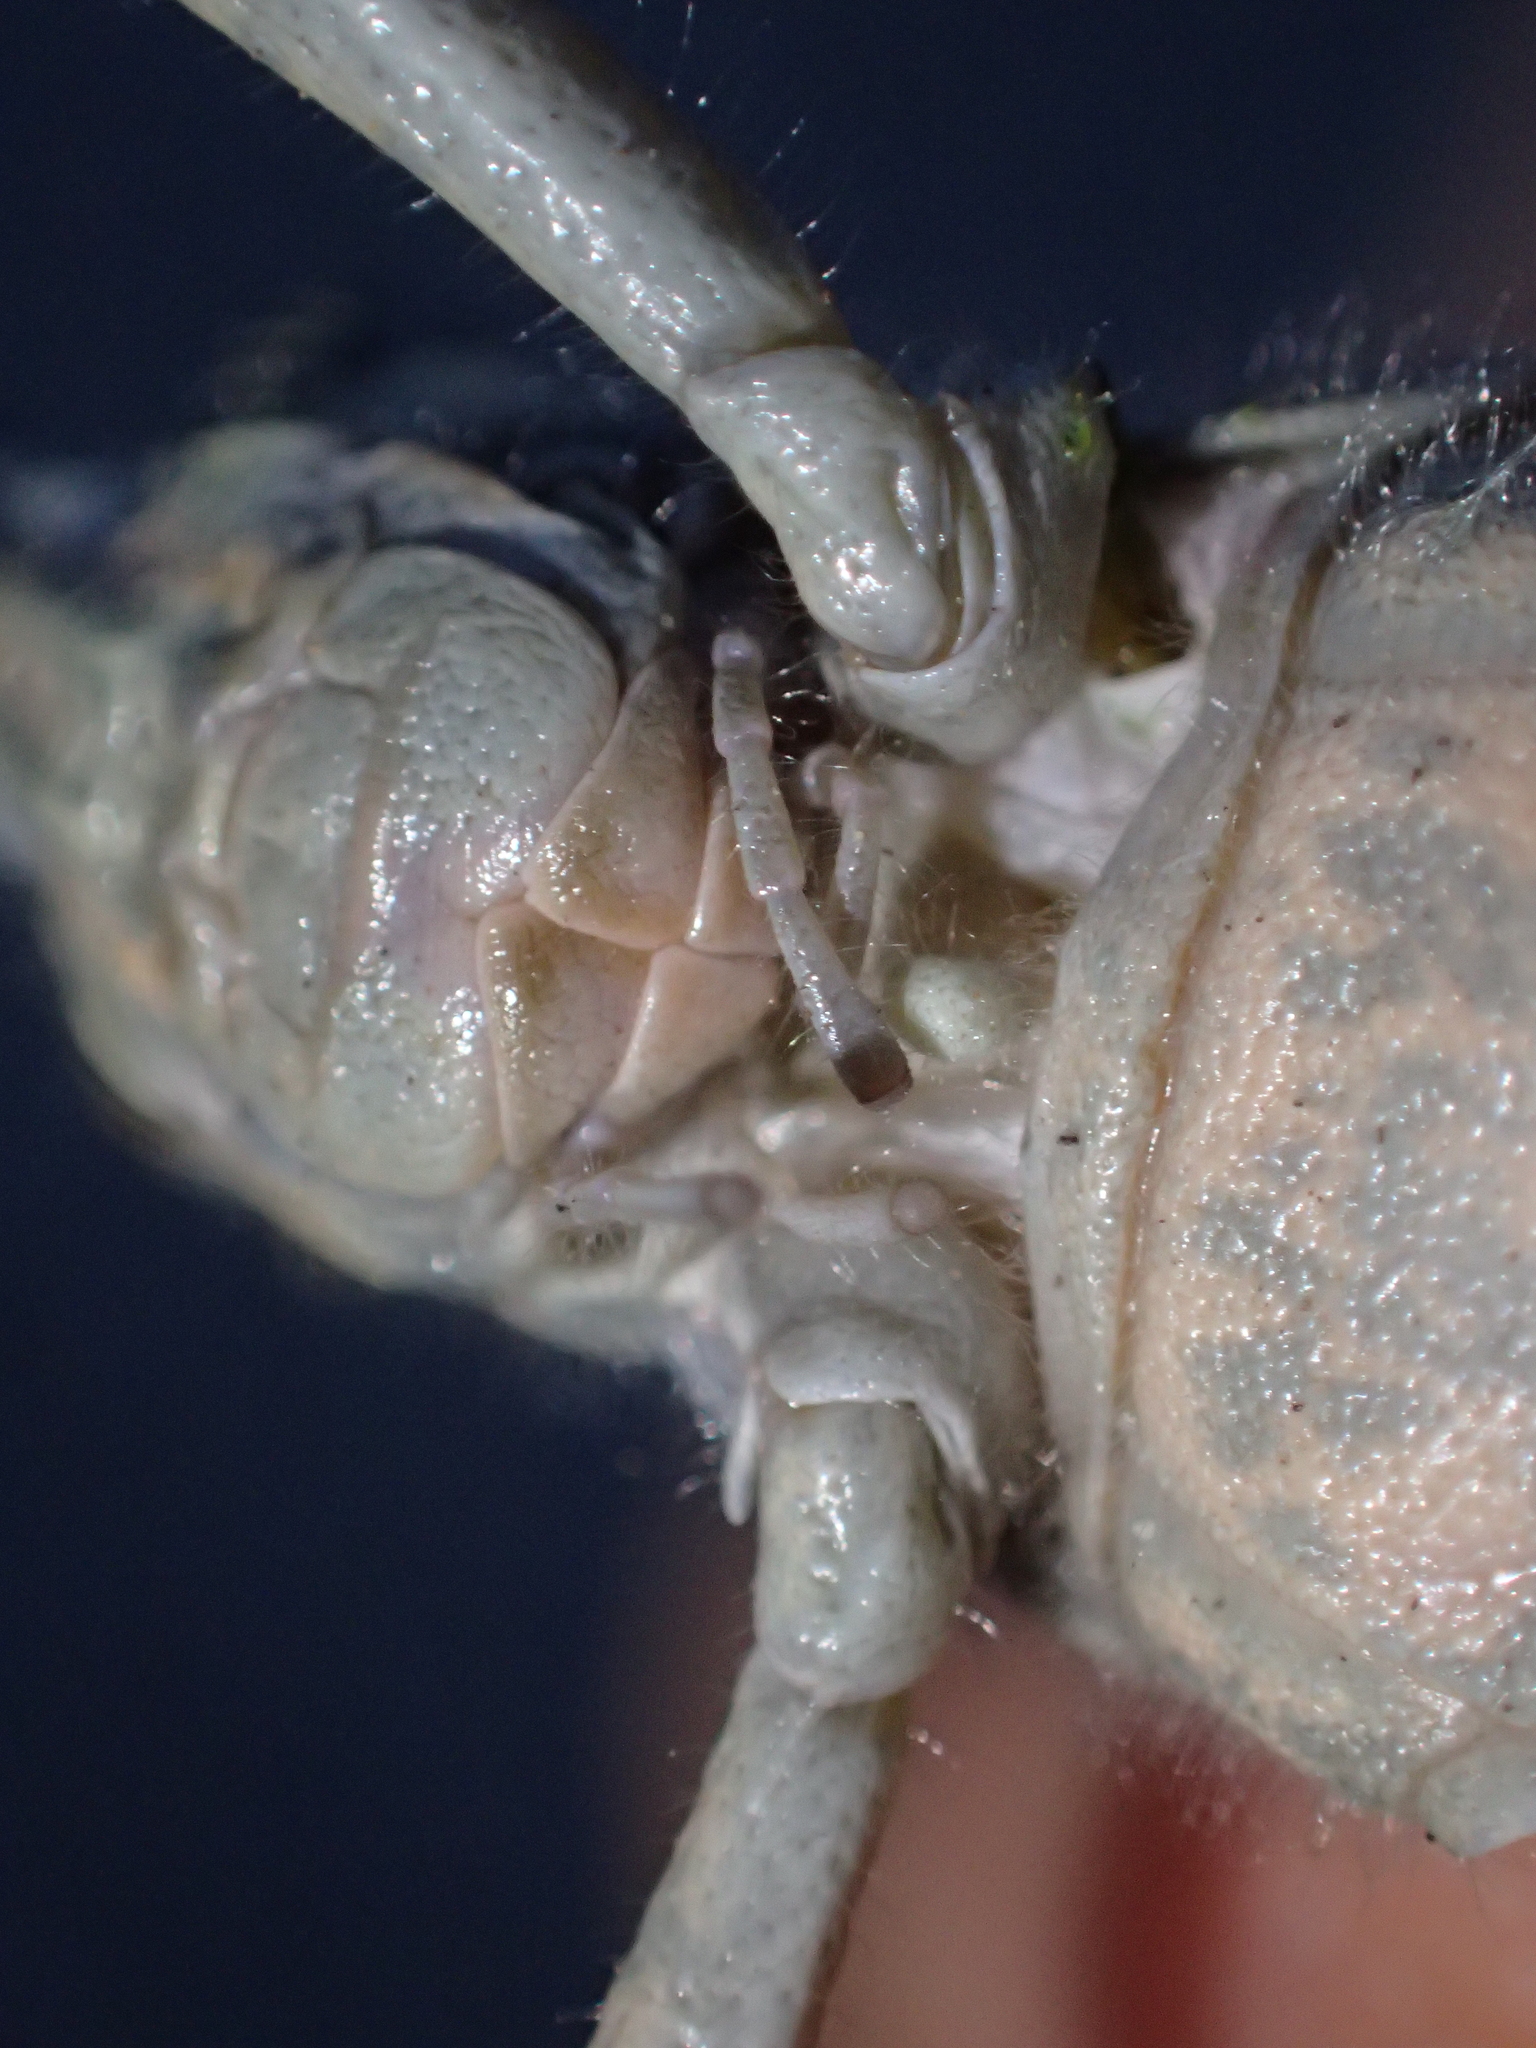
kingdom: Animalia
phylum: Arthropoda
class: Insecta
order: Orthoptera
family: Acrididae
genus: Anacridium
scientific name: Anacridium aegyptium
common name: Egyptian grasshopper
